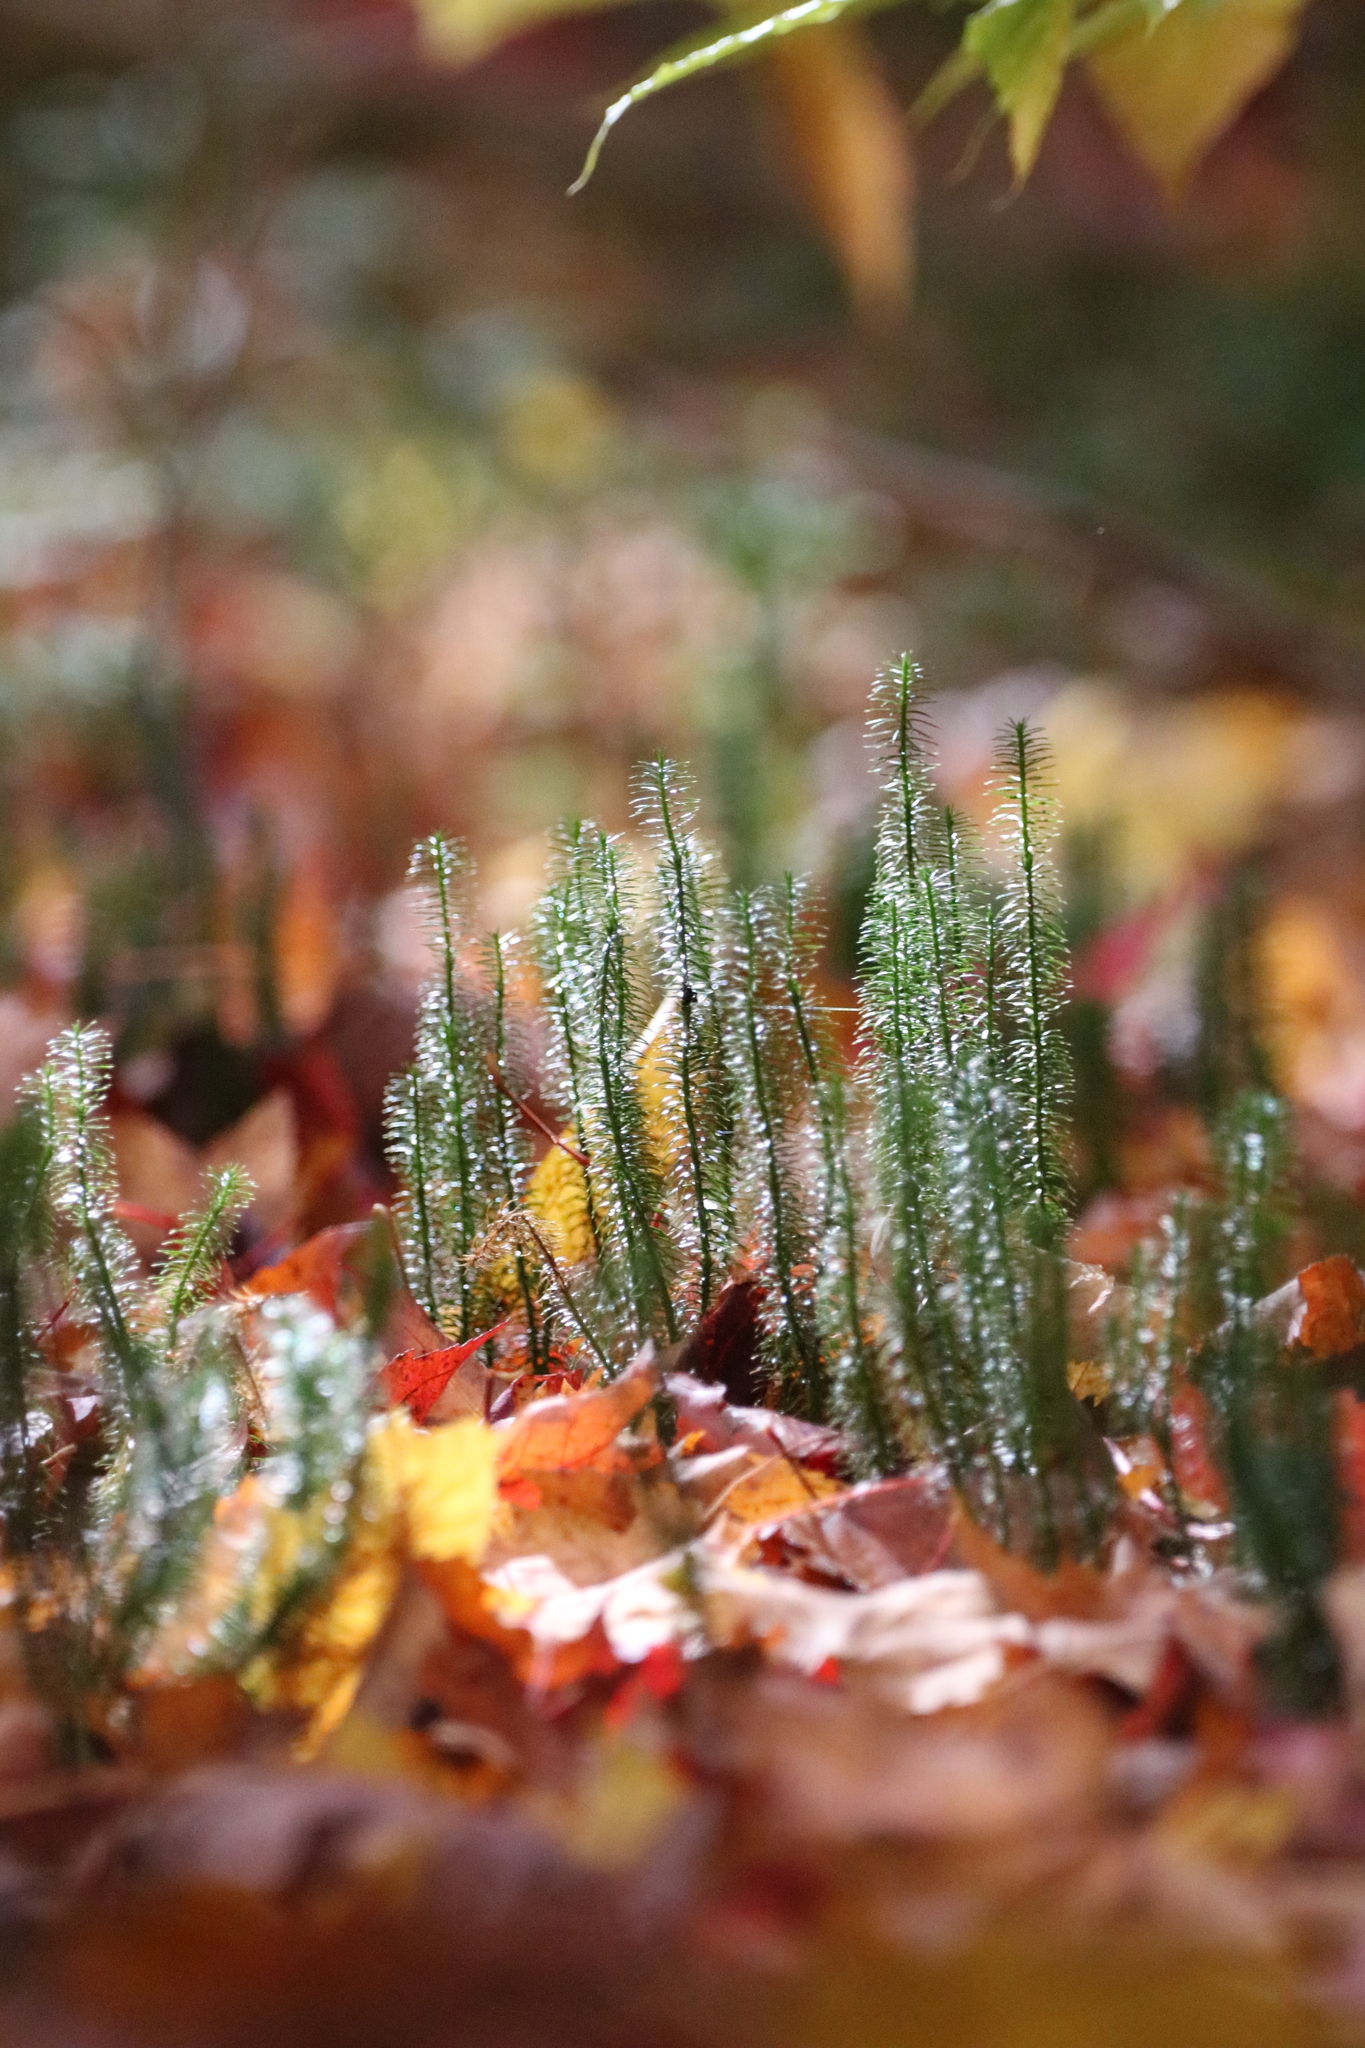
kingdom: Plantae
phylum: Tracheophyta
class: Lycopodiopsida
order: Lycopodiales
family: Lycopodiaceae
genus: Spinulum
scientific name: Spinulum annotinum
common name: Interrupted club-moss
